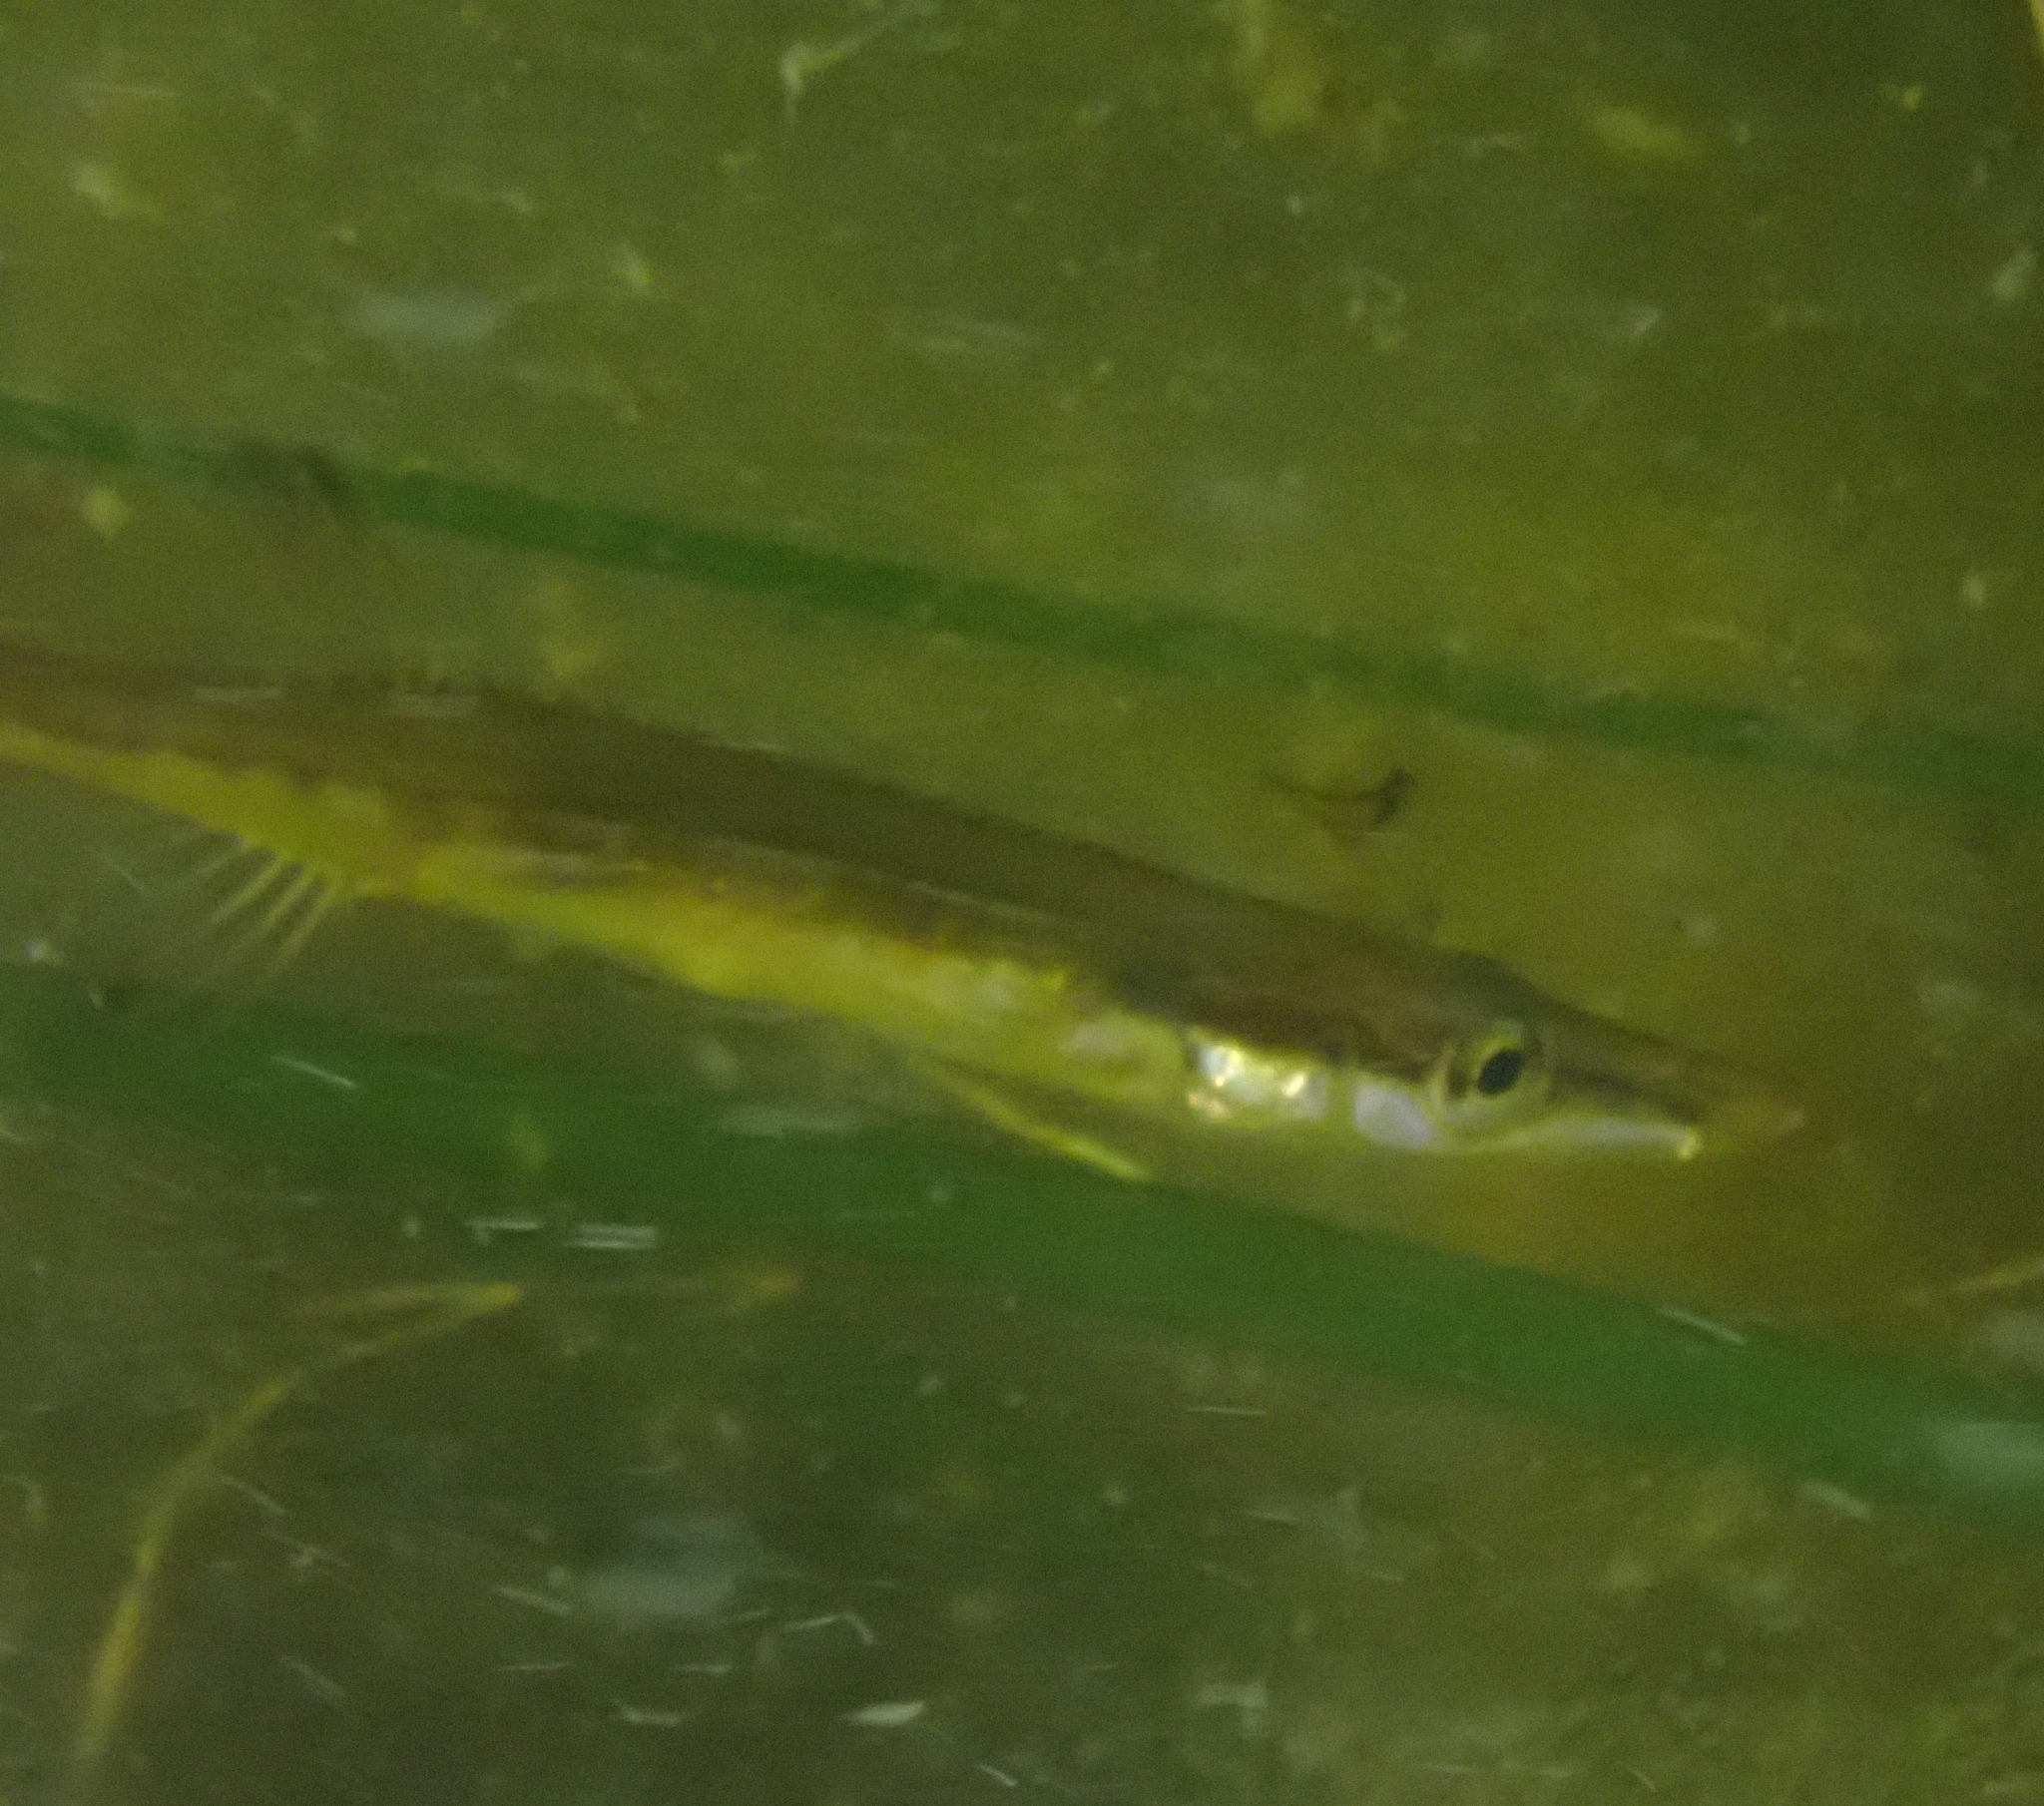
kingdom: Animalia
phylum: Chordata
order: Gasterosteiformes
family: Gasterosteidae
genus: Spinachia
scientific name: Spinachia spinachia
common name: Fifteen-spined stickleback
